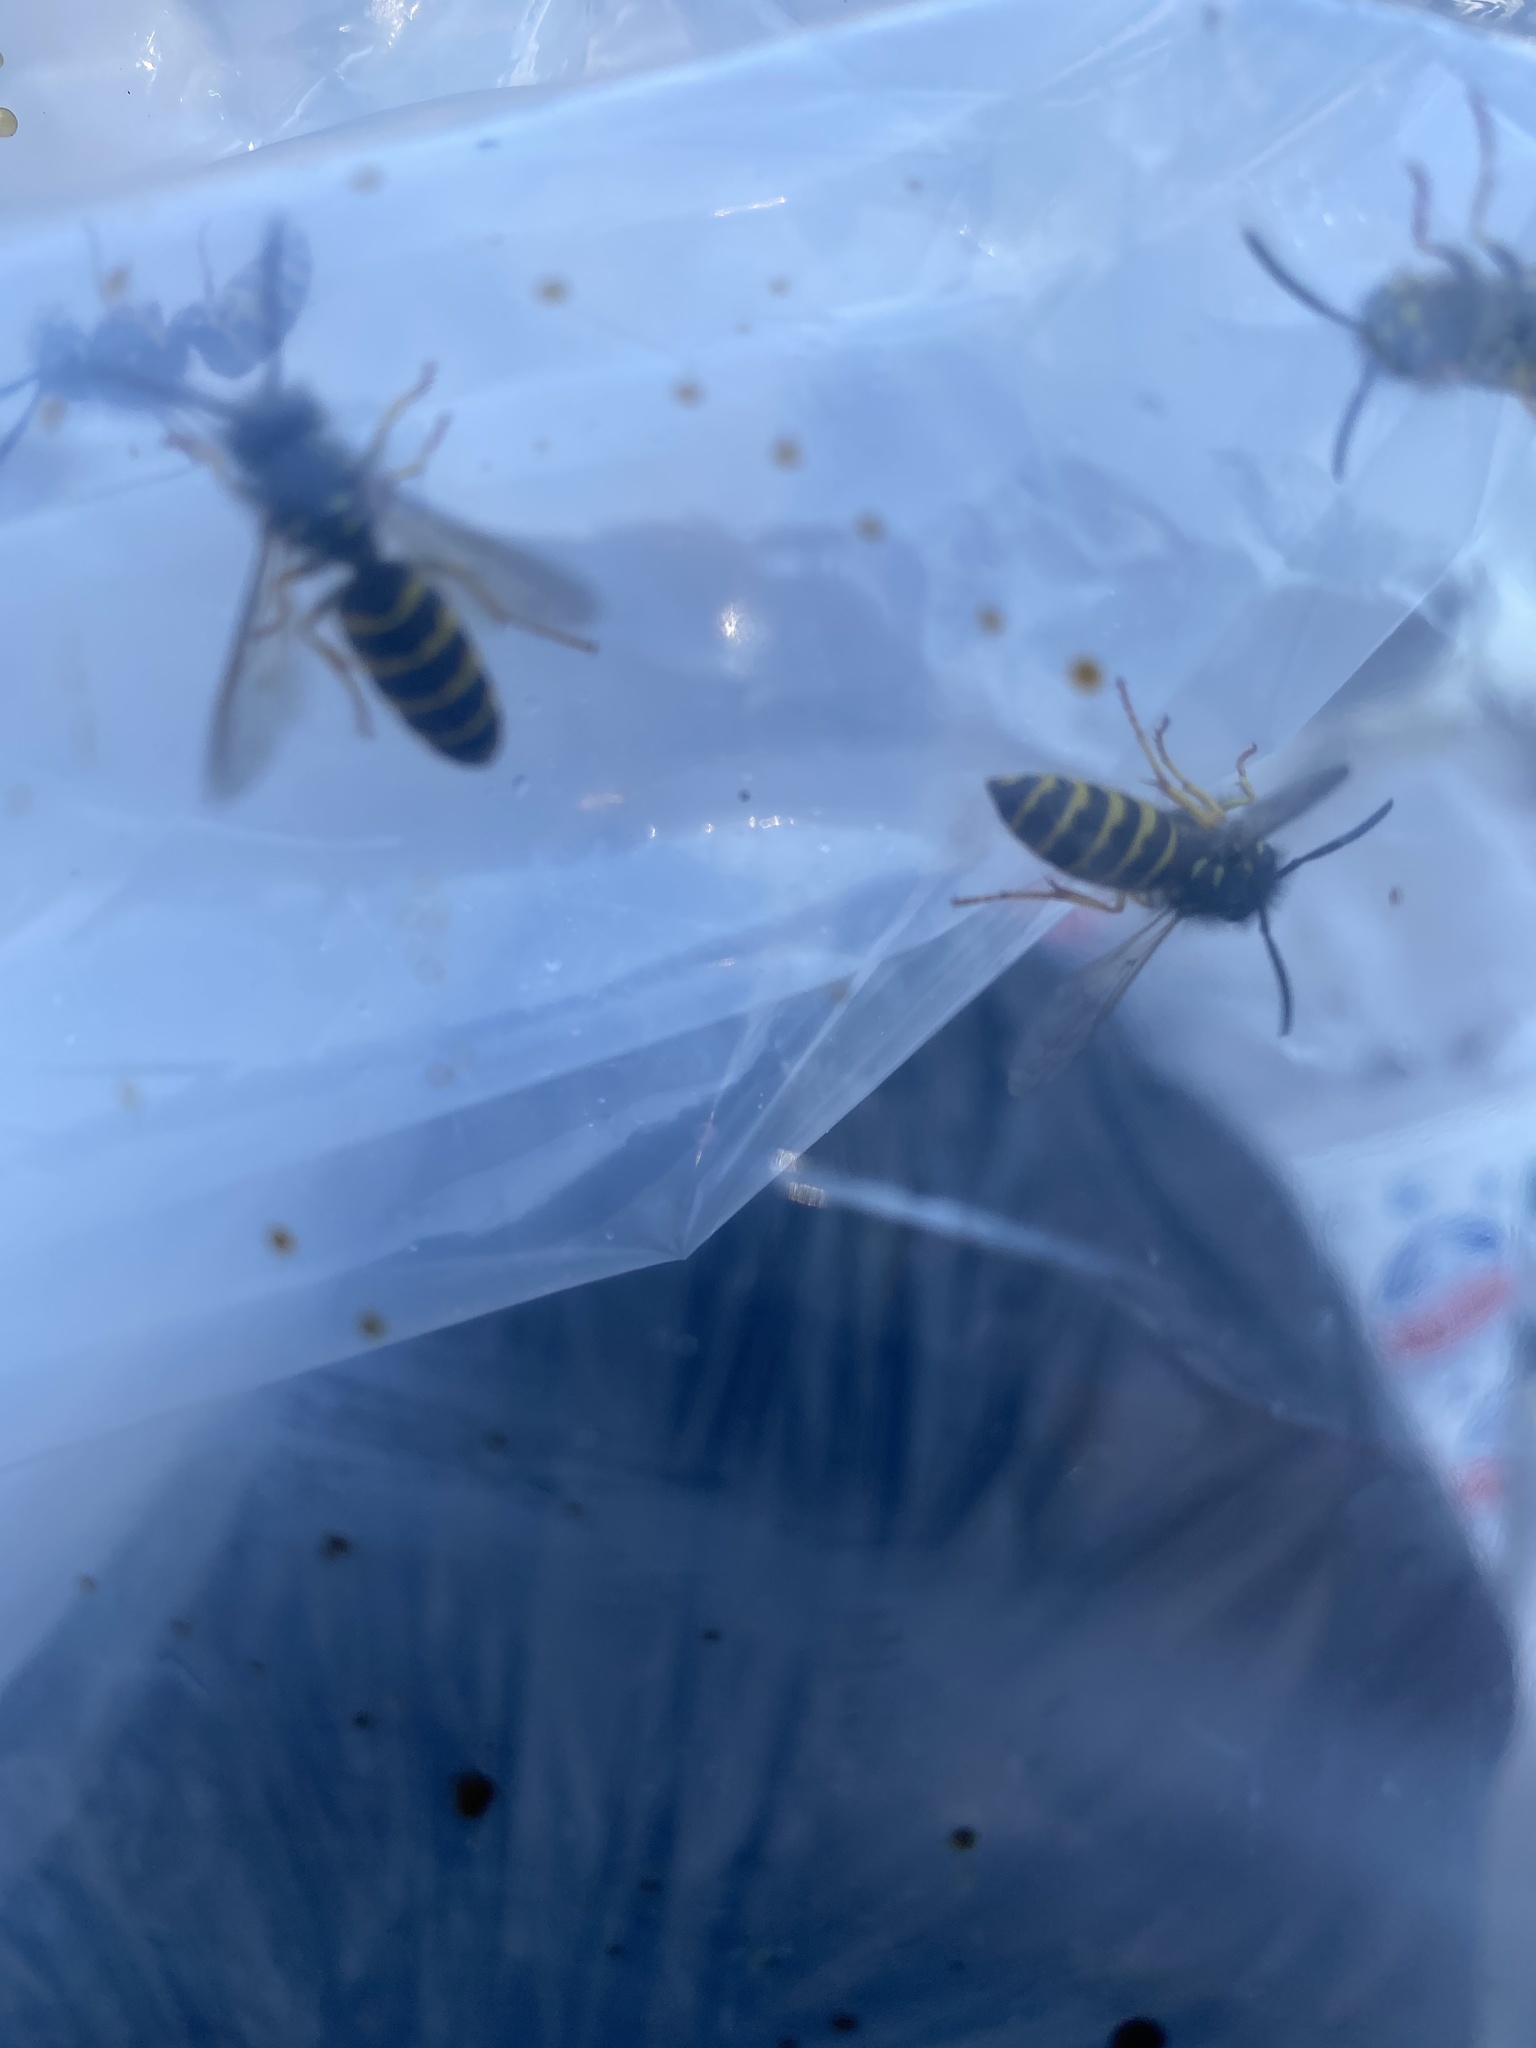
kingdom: Animalia
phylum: Arthropoda
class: Insecta
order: Hymenoptera
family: Vespidae
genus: Vespula
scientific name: Vespula alascensis
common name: Alaska yellowjacket
